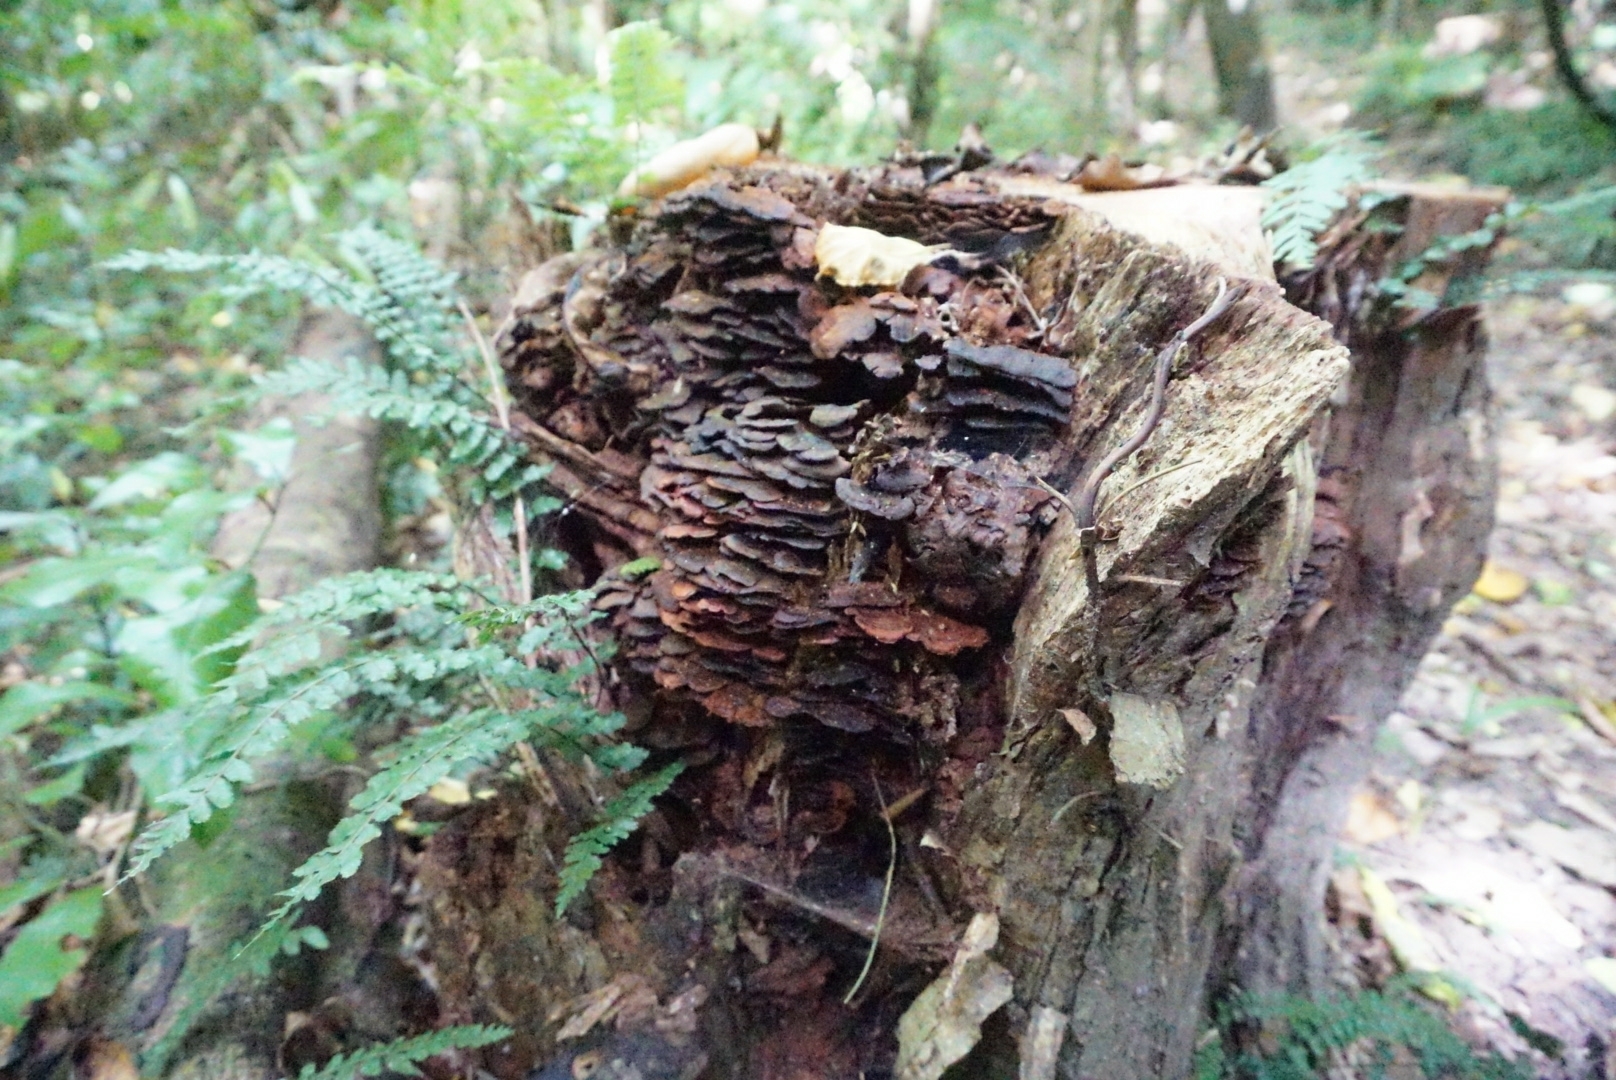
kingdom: Fungi
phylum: Basidiomycota
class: Agaricomycetes
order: Hymenochaetales
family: Hymenochaetaceae
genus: Hymenochaete
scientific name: Hymenochaete microcycla
